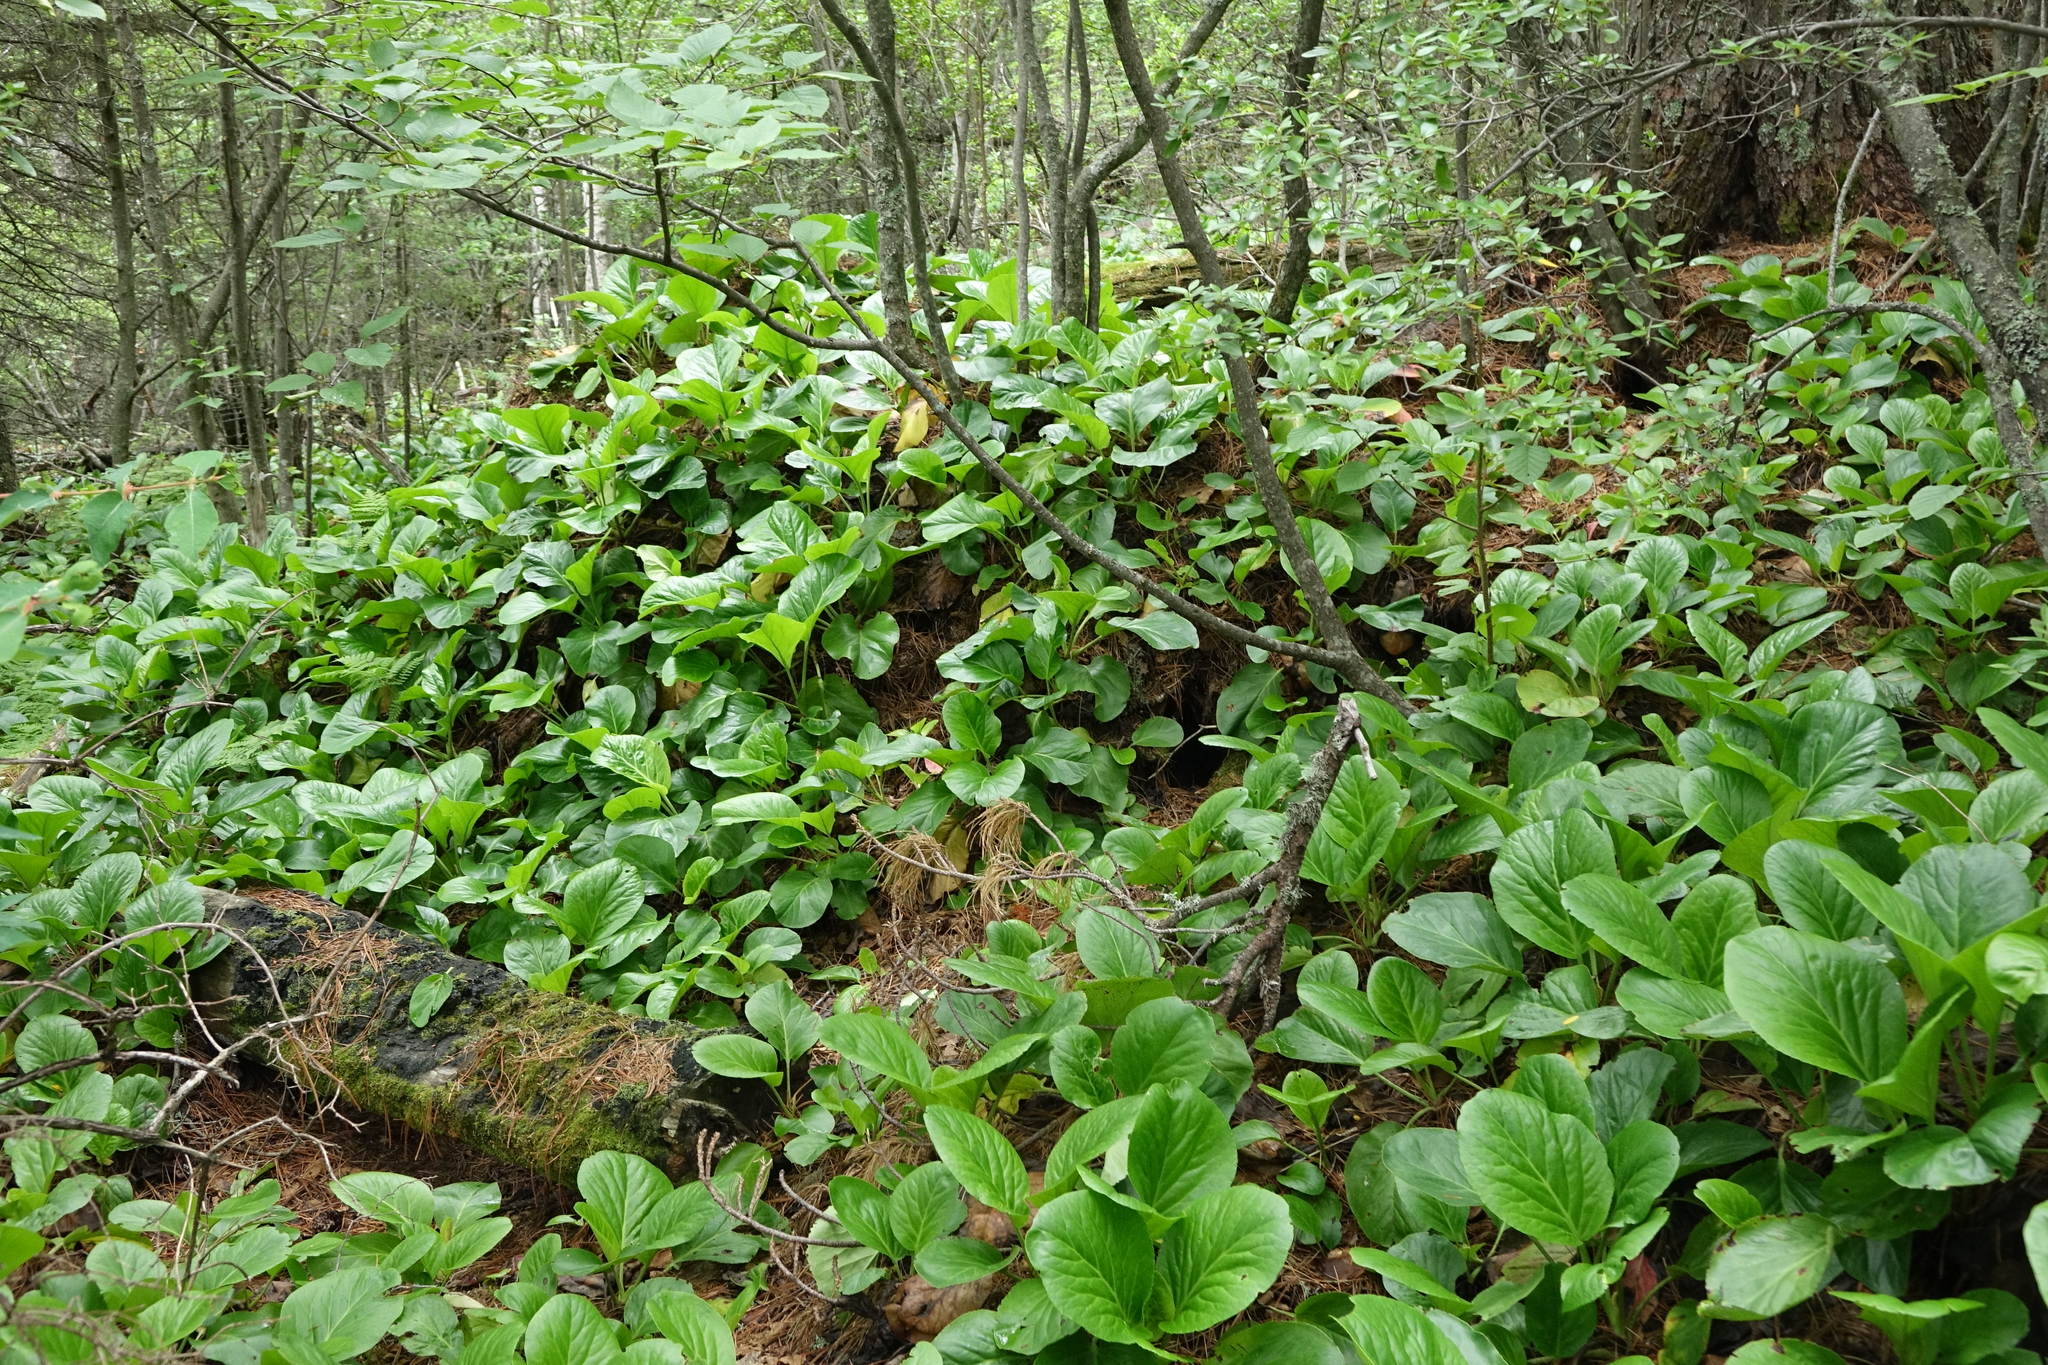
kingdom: Plantae
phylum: Tracheophyta
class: Magnoliopsida
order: Saxifragales
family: Saxifragaceae
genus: Bergenia
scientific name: Bergenia crassifolia
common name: Elephant-ears
